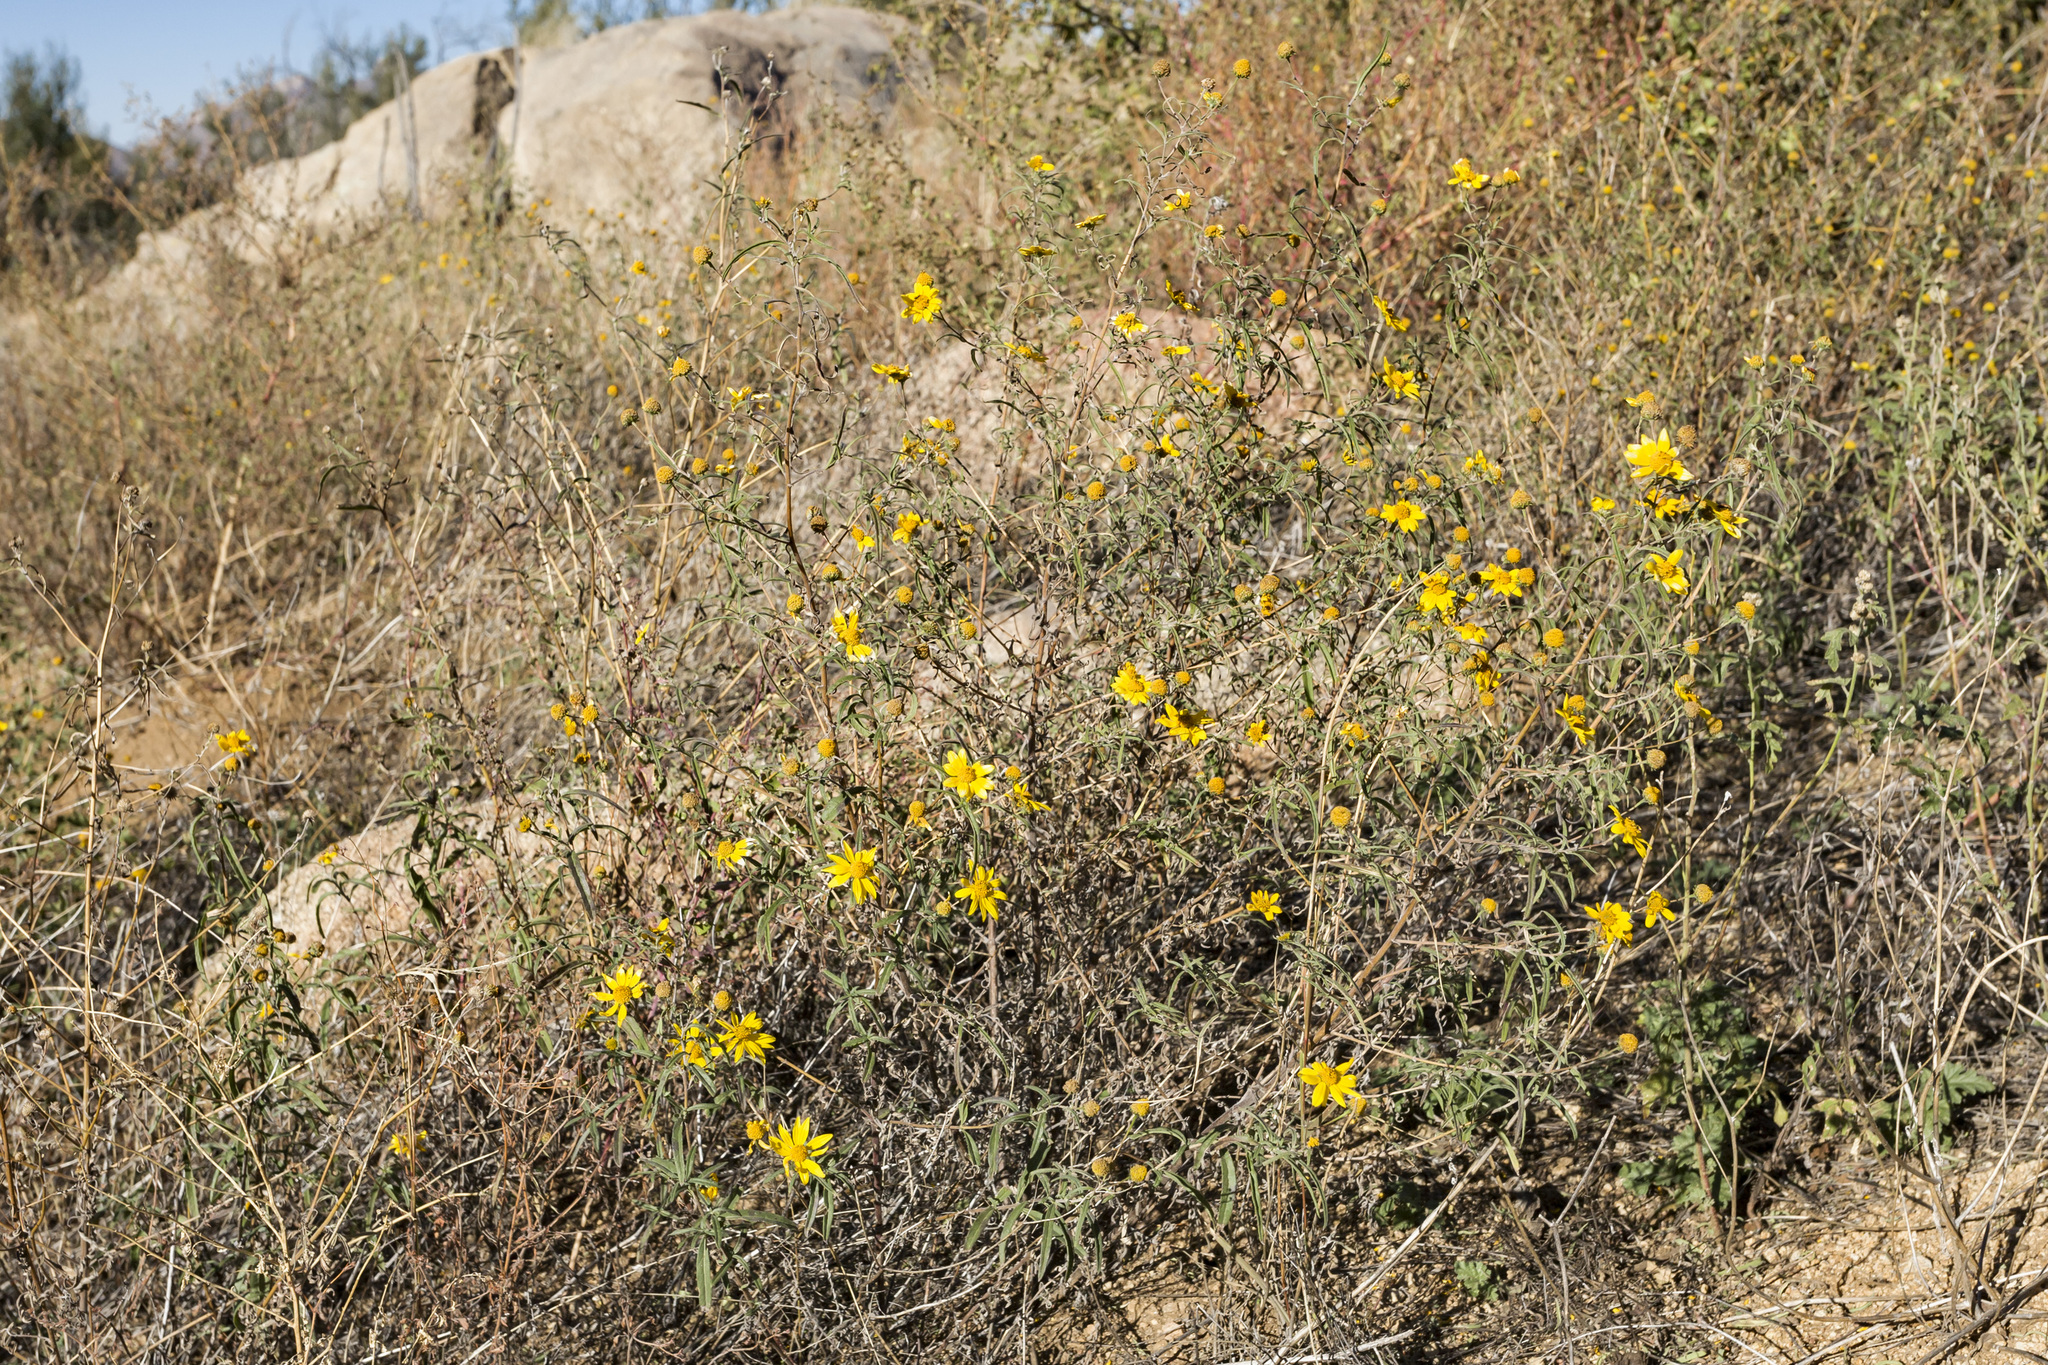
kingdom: Plantae
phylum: Tracheophyta
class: Magnoliopsida
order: Asterales
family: Asteraceae
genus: Heliomeris
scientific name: Heliomeris multiflora
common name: Showy goldeneye
